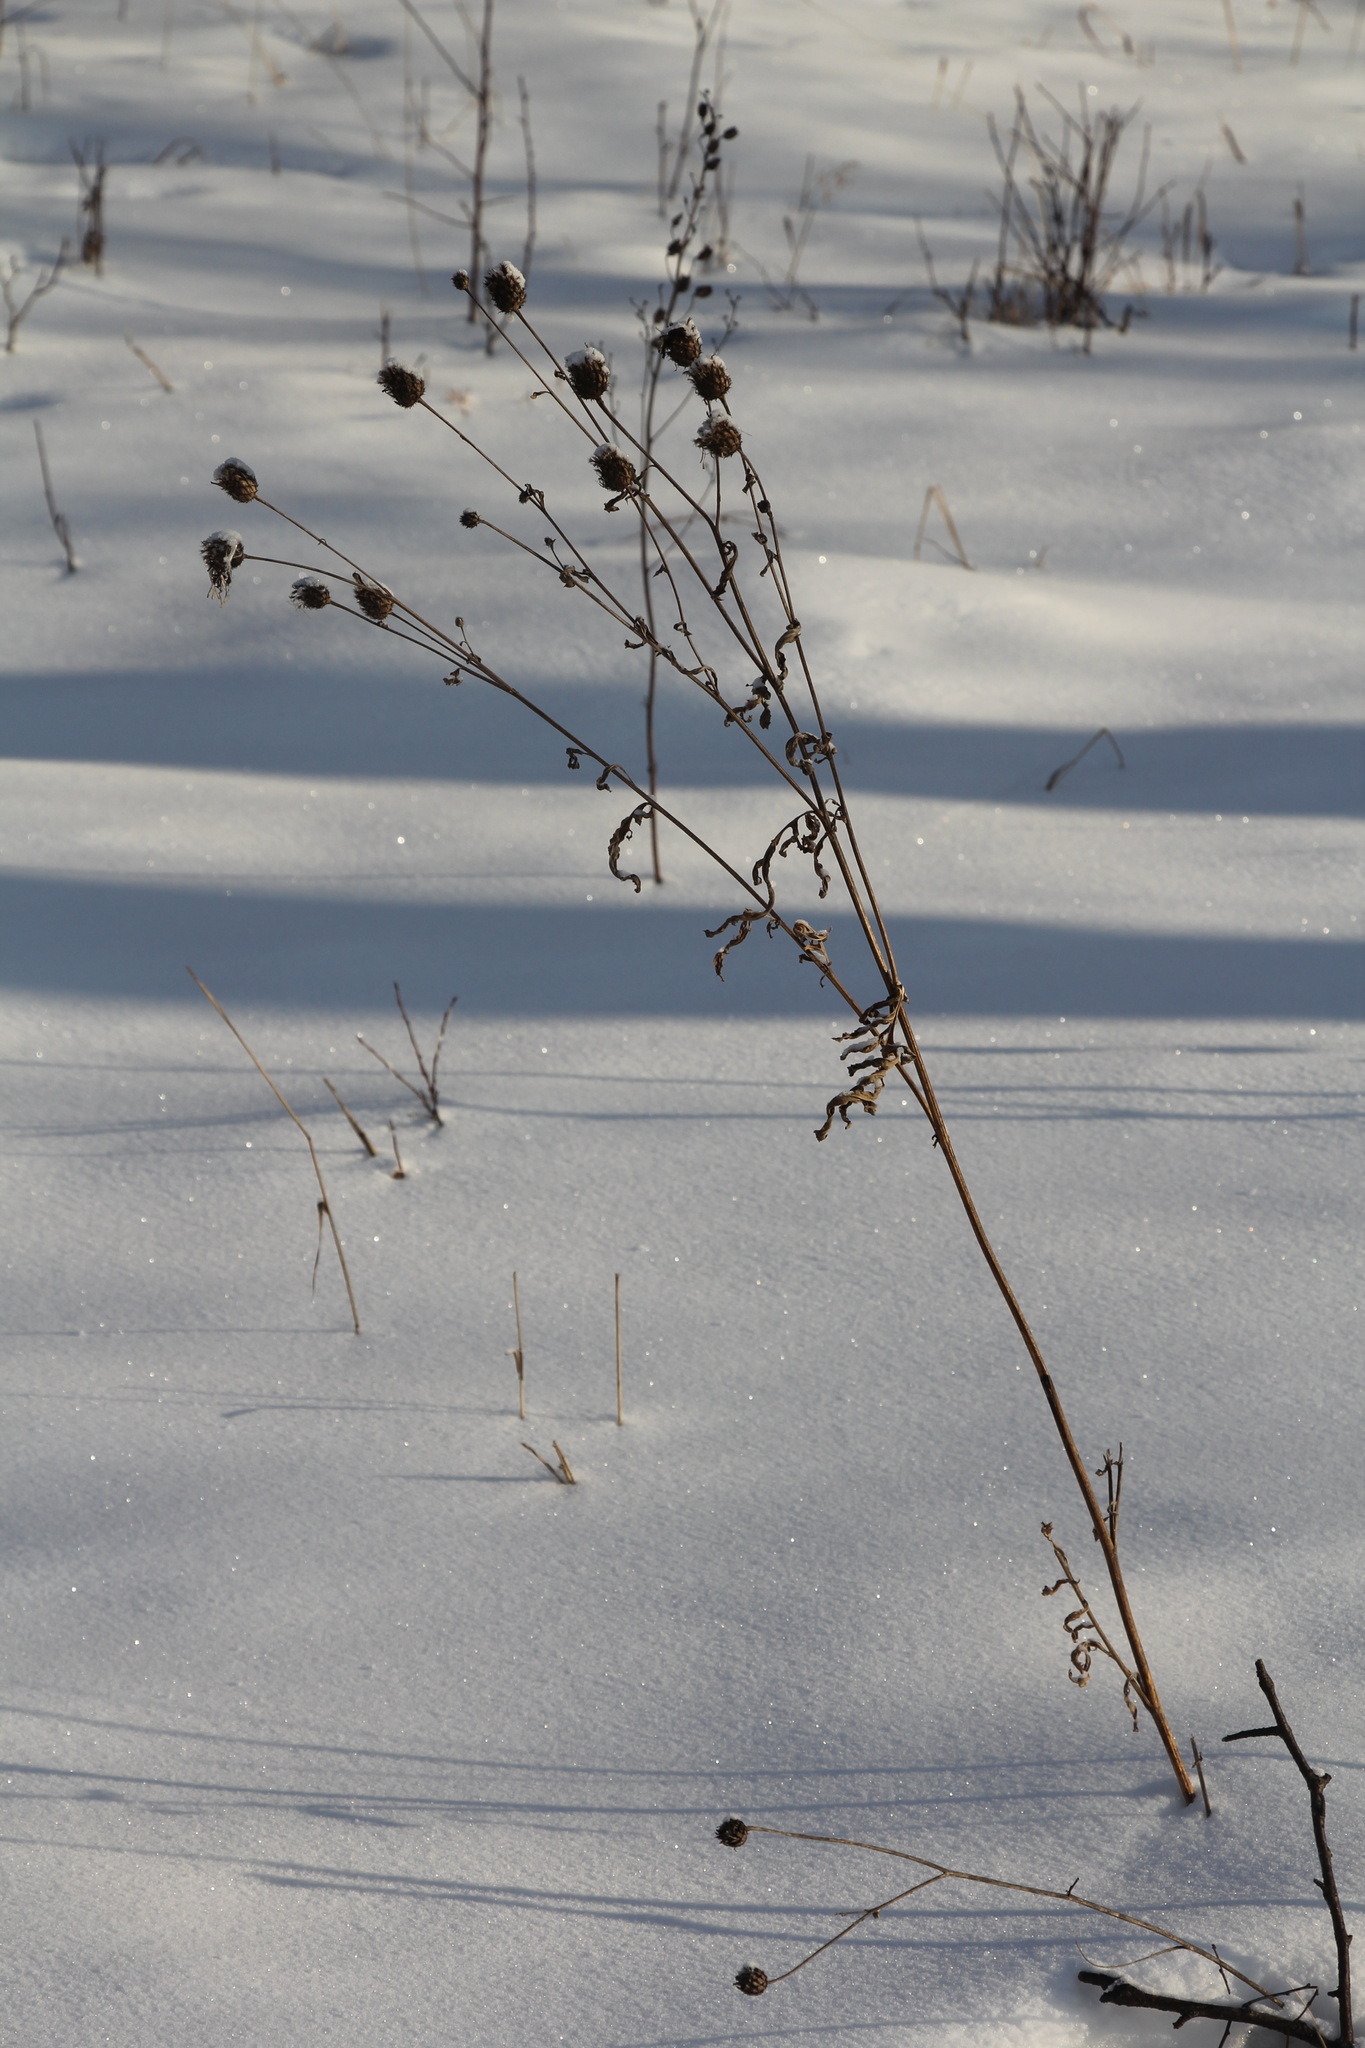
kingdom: Plantae
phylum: Tracheophyta
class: Magnoliopsida
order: Asterales
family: Asteraceae
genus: Centaurea
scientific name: Centaurea scabiosa
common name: Greater knapweed
